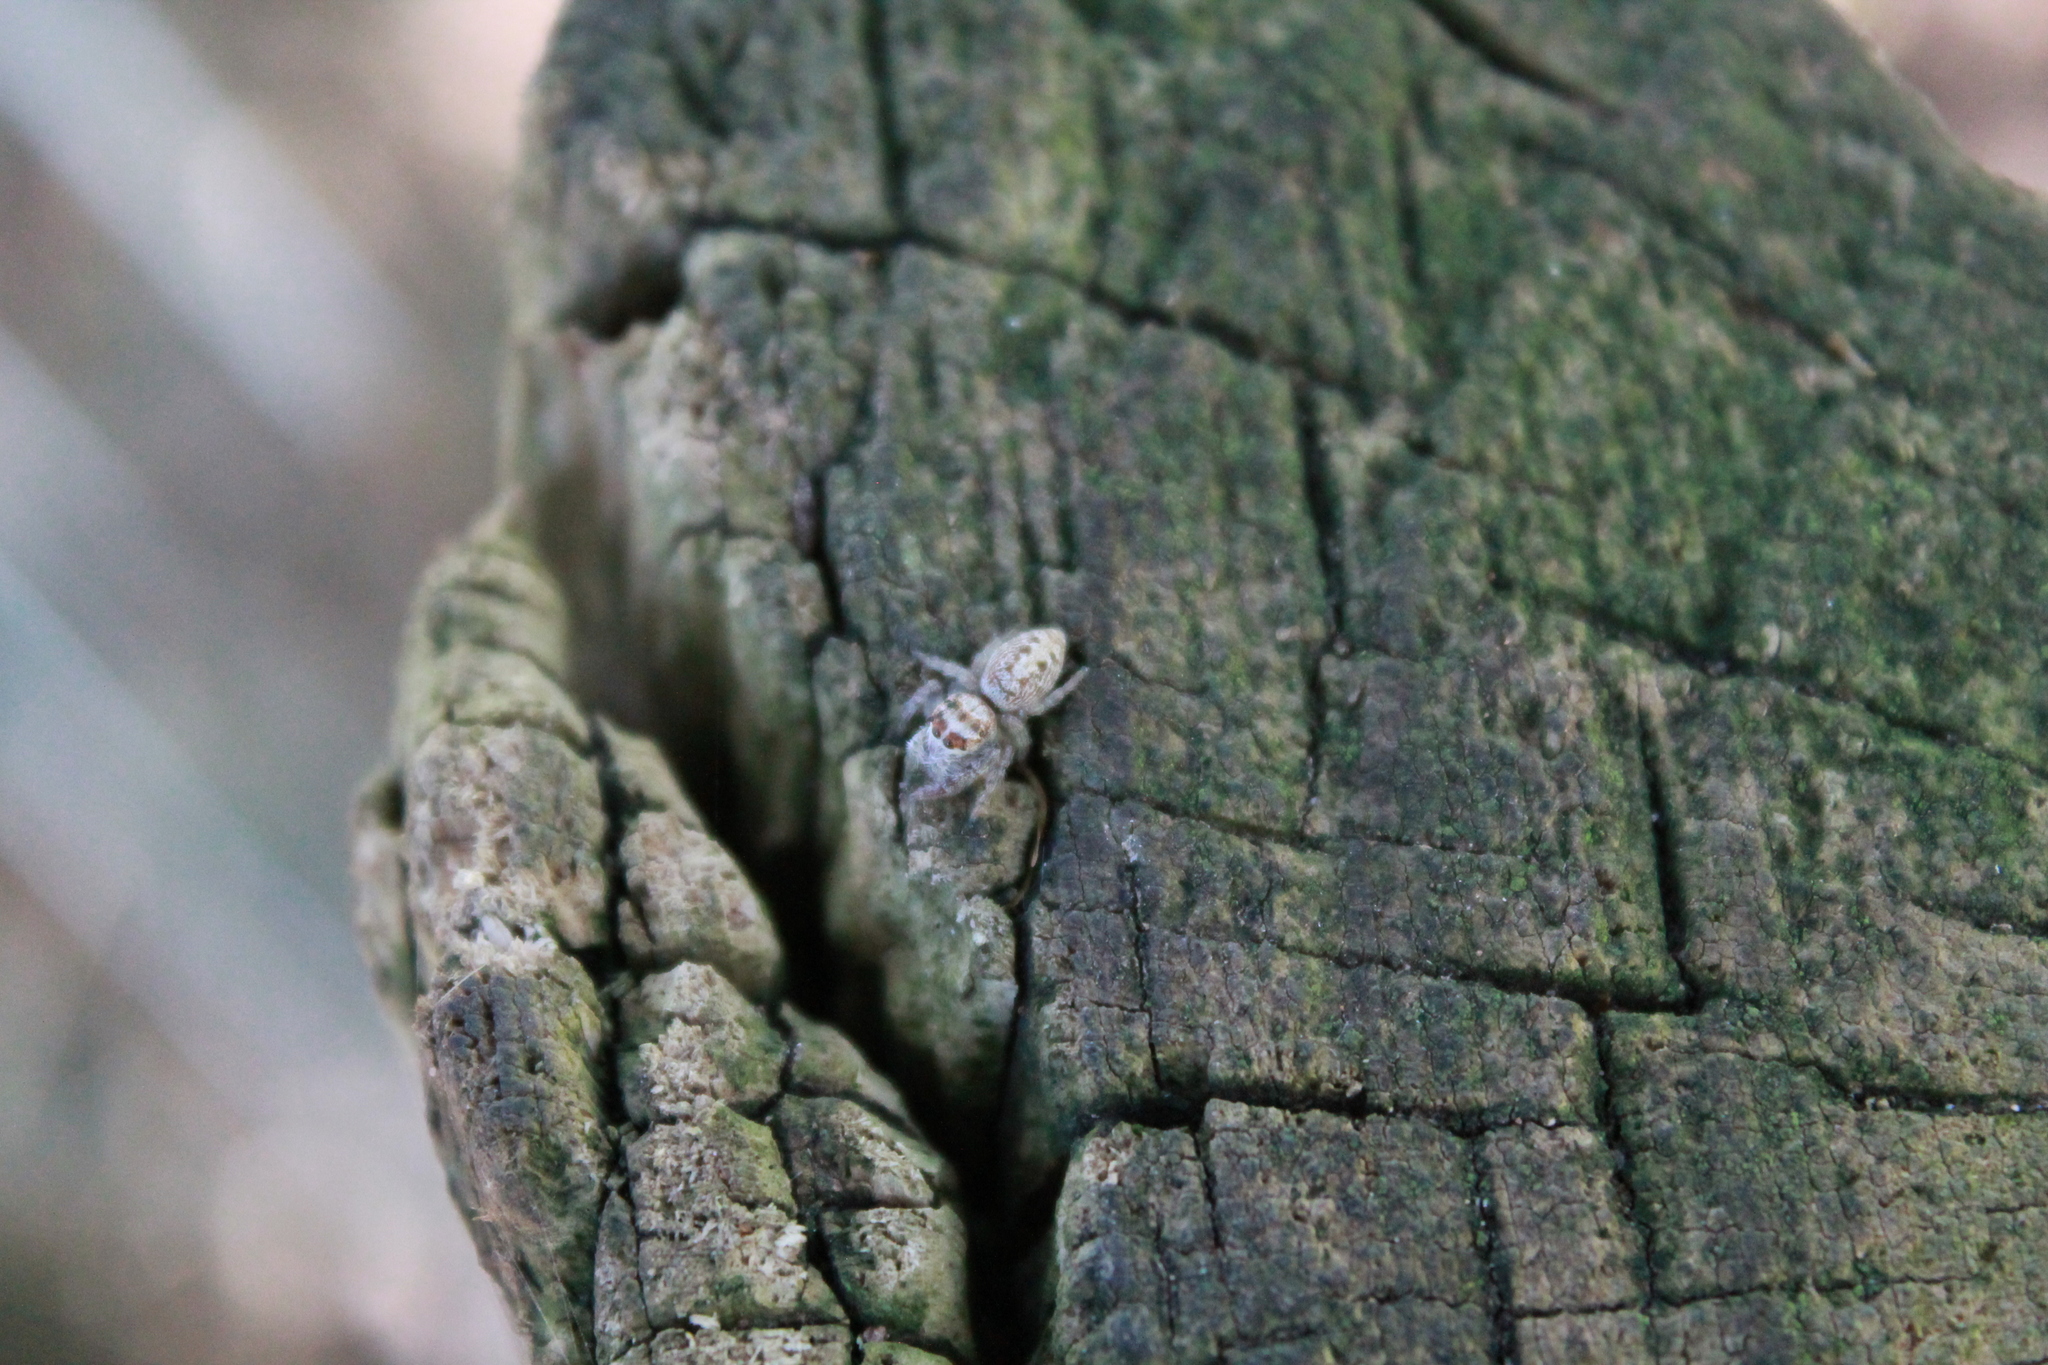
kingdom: Animalia
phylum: Arthropoda
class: Arachnida
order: Araneae
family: Salticidae
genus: Opisthoncus
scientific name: Opisthoncus polyphemus
